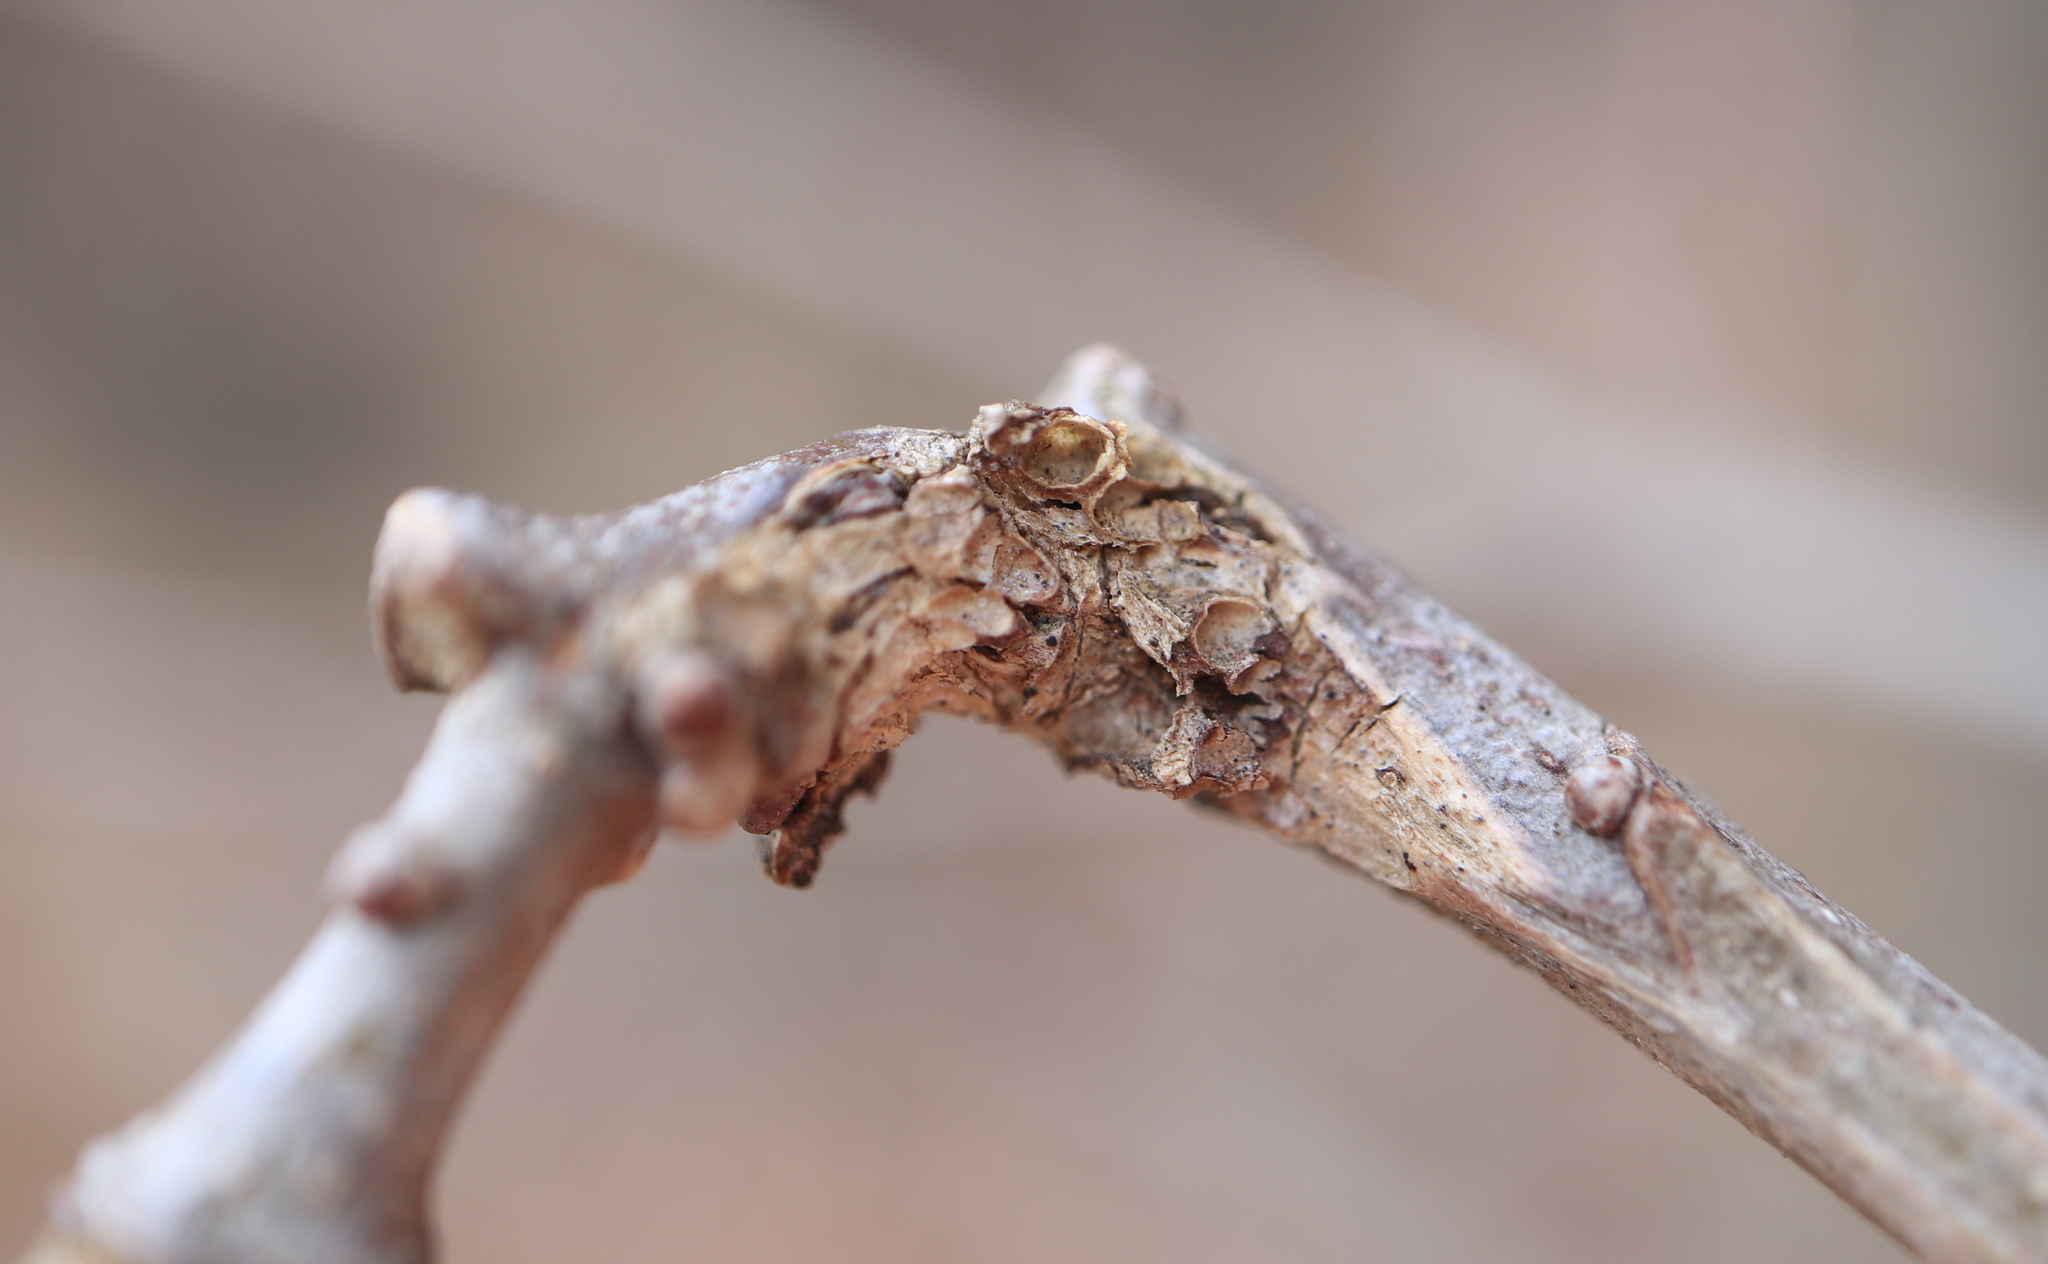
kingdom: Animalia
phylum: Arthropoda
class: Insecta
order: Hymenoptera
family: Cynipidae
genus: Neuroterus
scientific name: Neuroterus quercusbaccarum
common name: Common spangle gall
